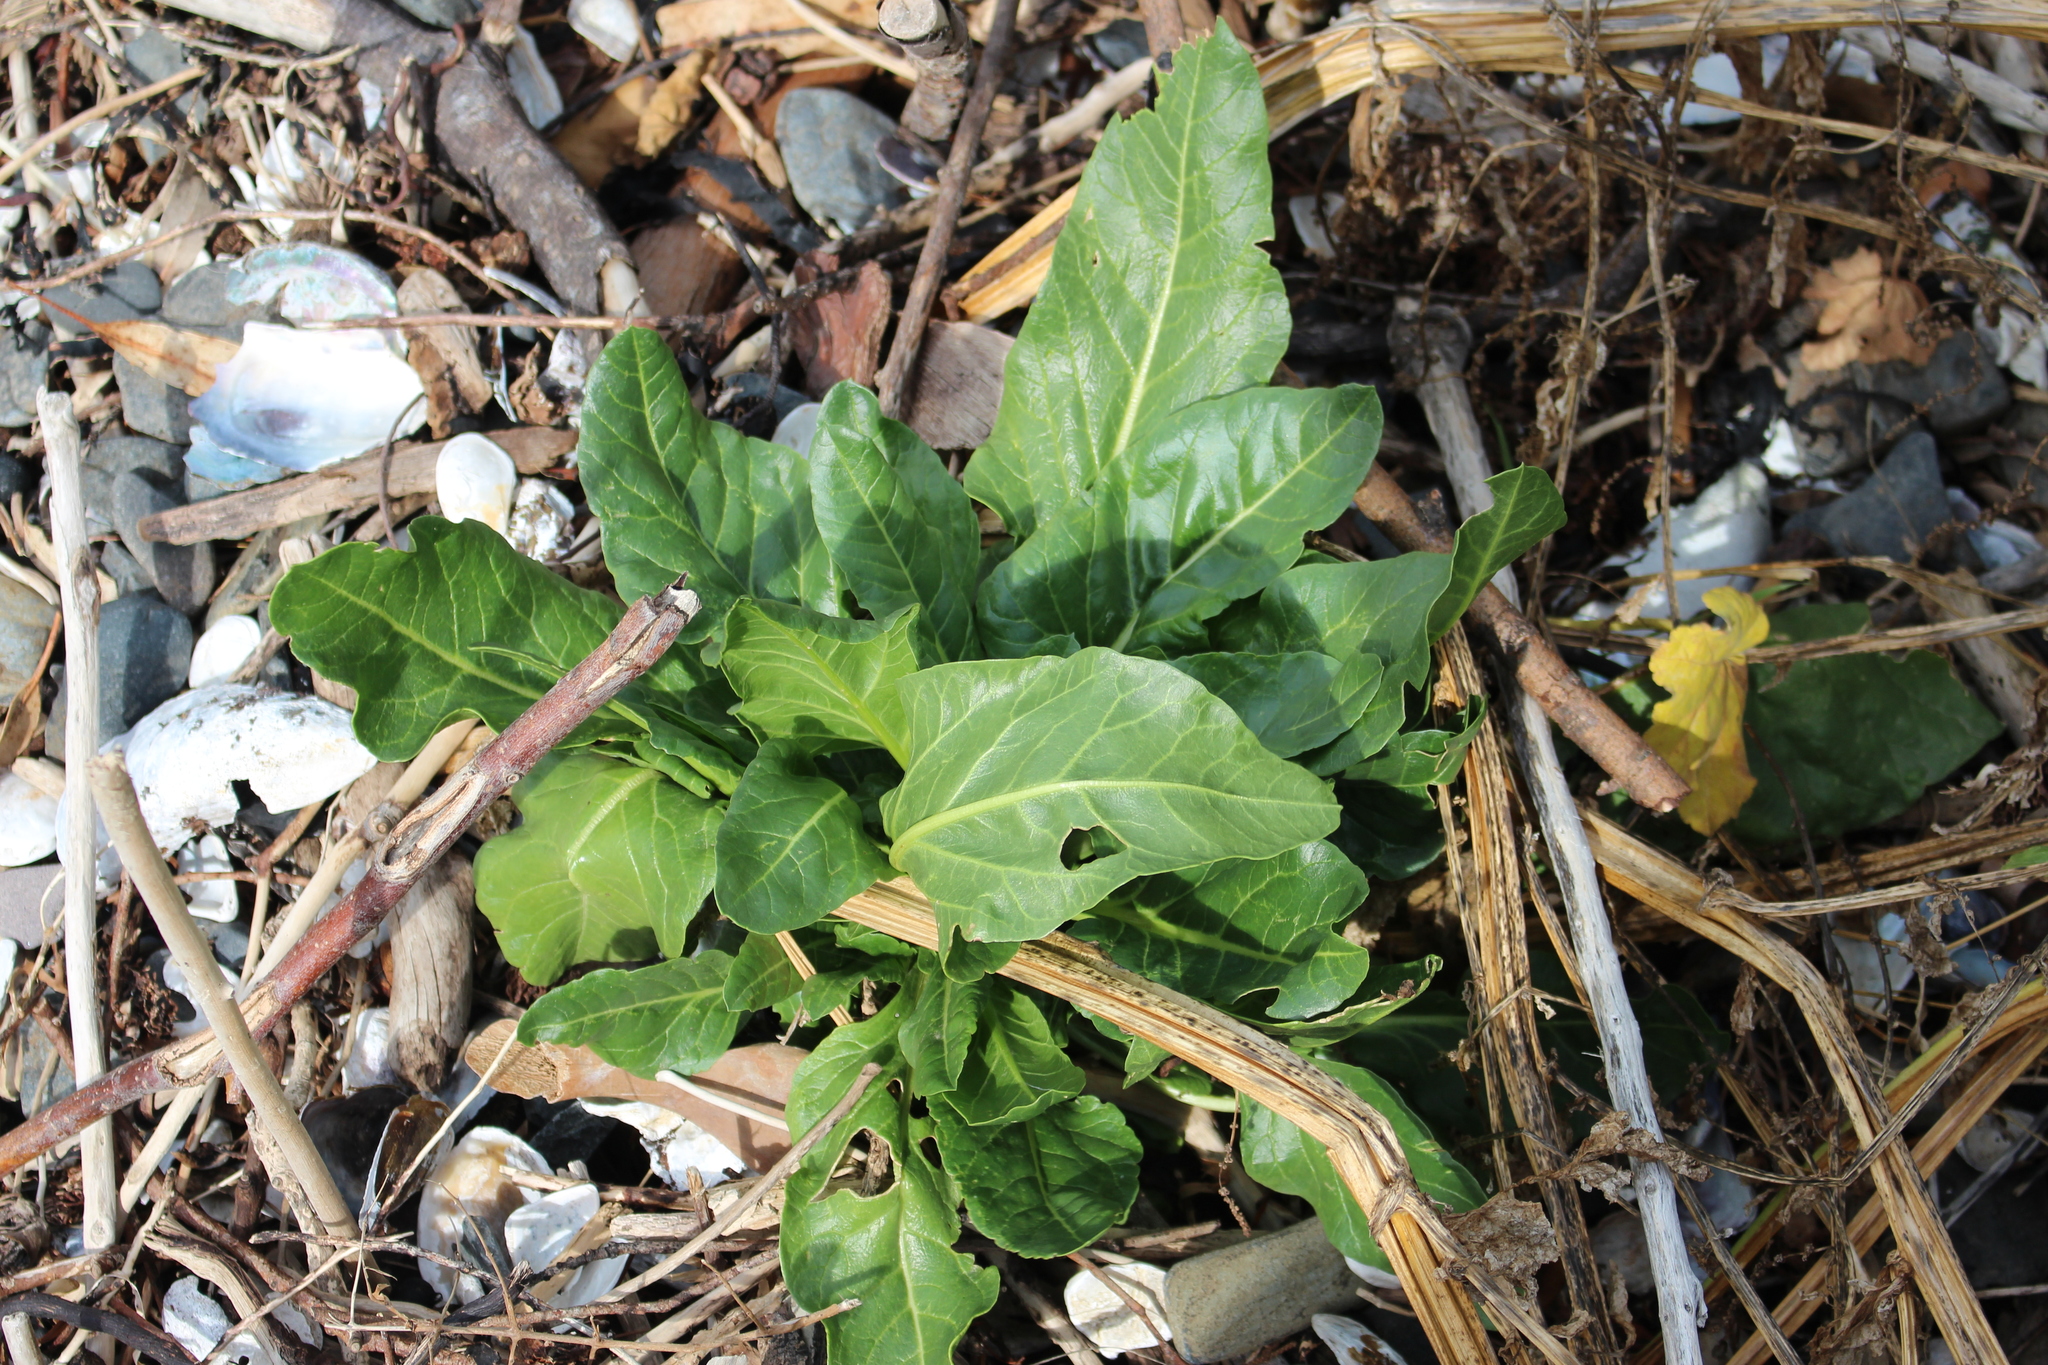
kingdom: Plantae
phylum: Tracheophyta
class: Magnoliopsida
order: Caryophyllales
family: Amaranthaceae
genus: Beta
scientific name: Beta vulgaris
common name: Beet
